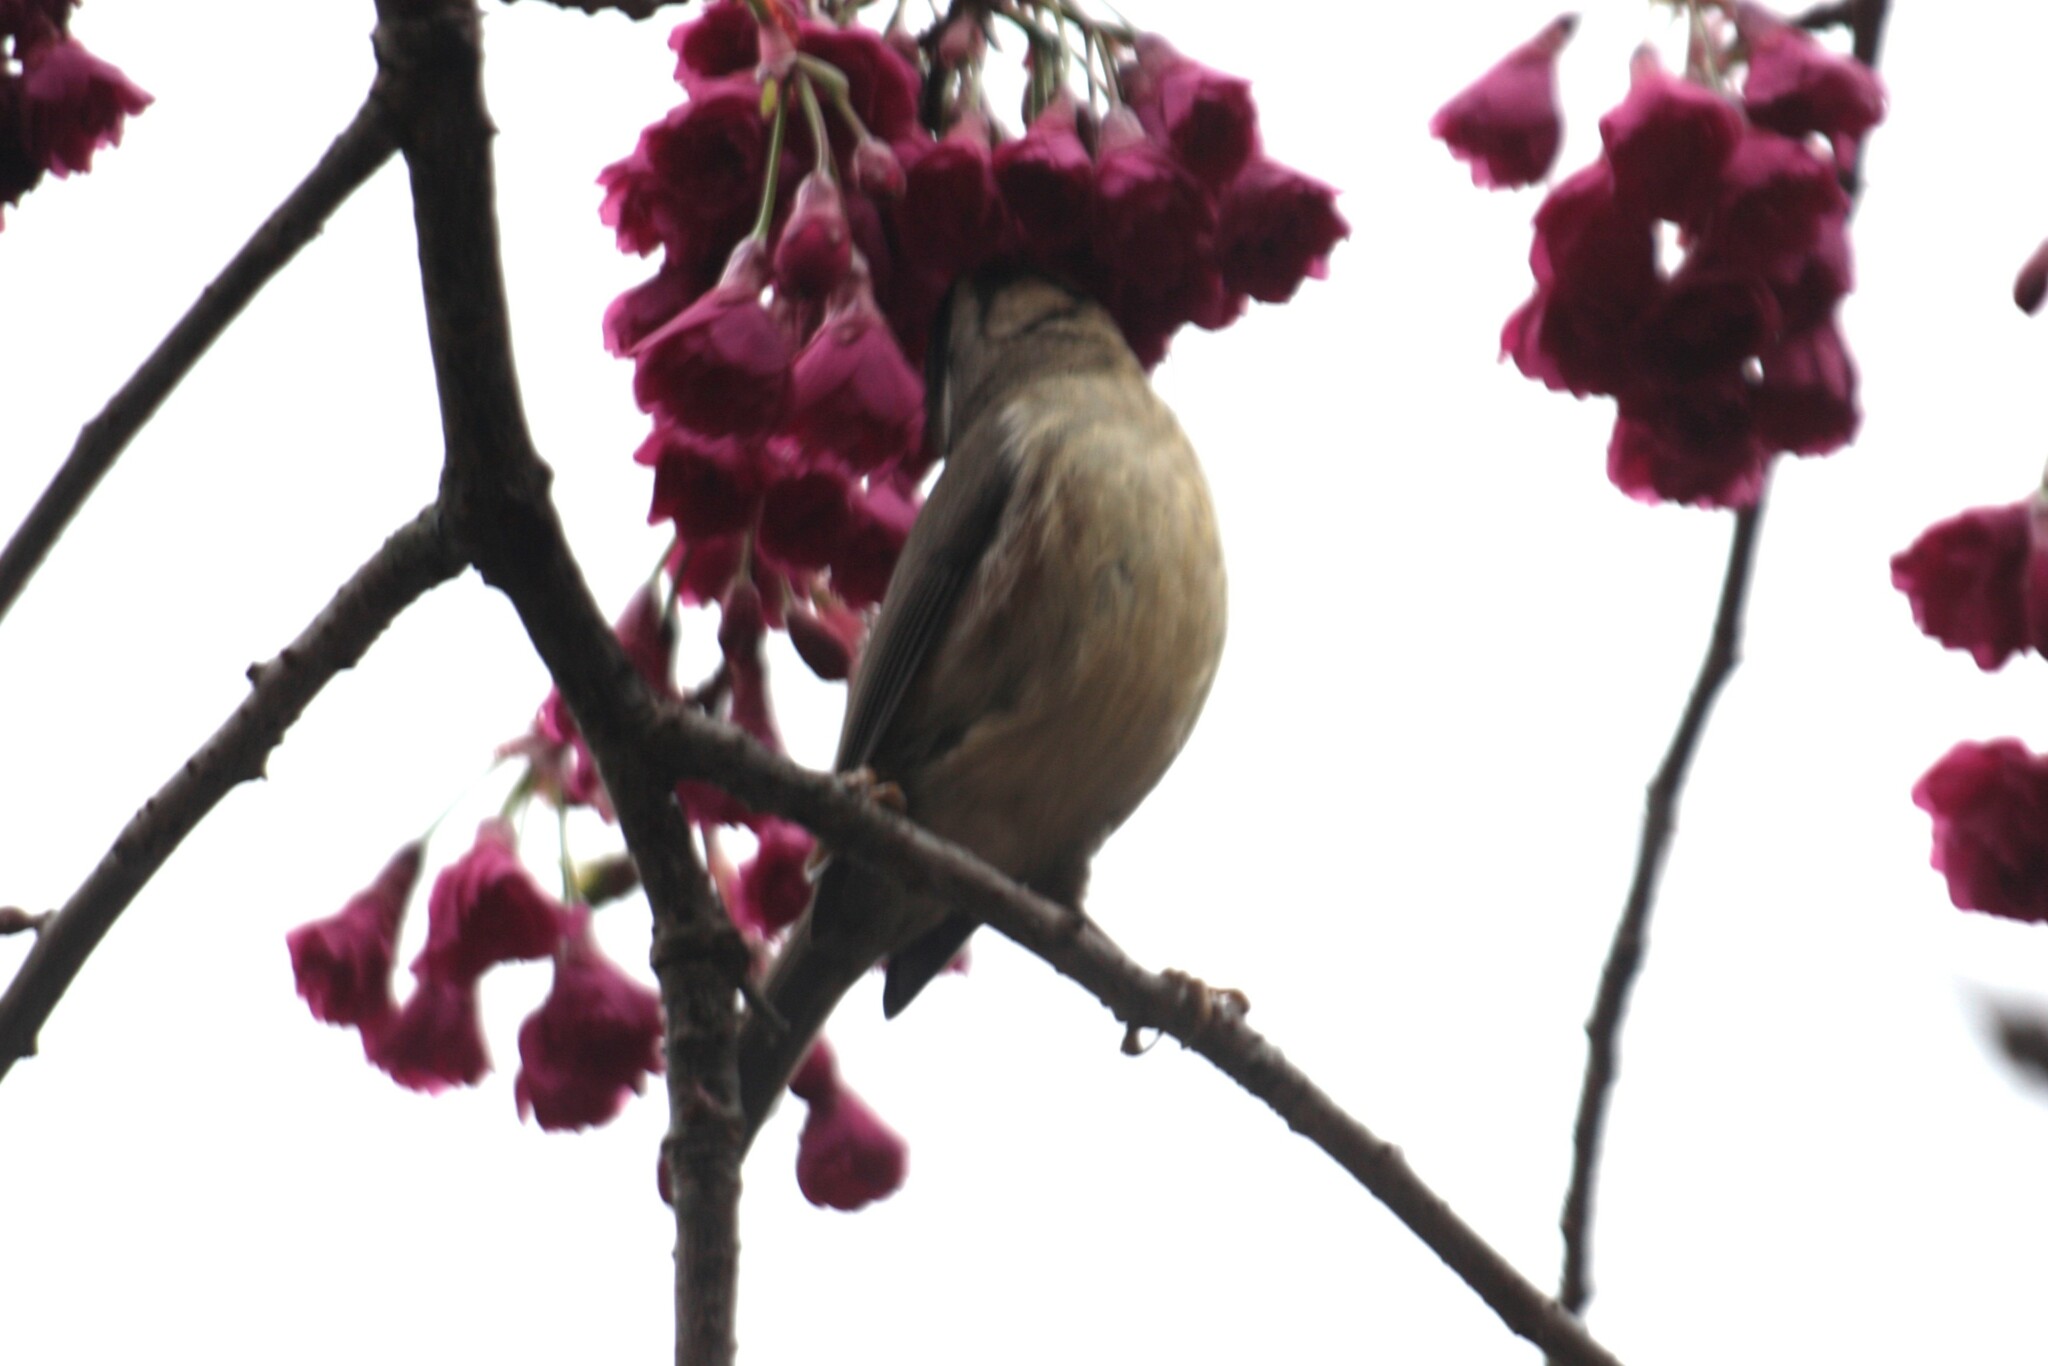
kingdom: Animalia
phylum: Chordata
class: Aves
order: Passeriformes
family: Zosteropidae
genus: Yuhina
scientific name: Yuhina brunneiceps
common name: Taiwan yuhina
